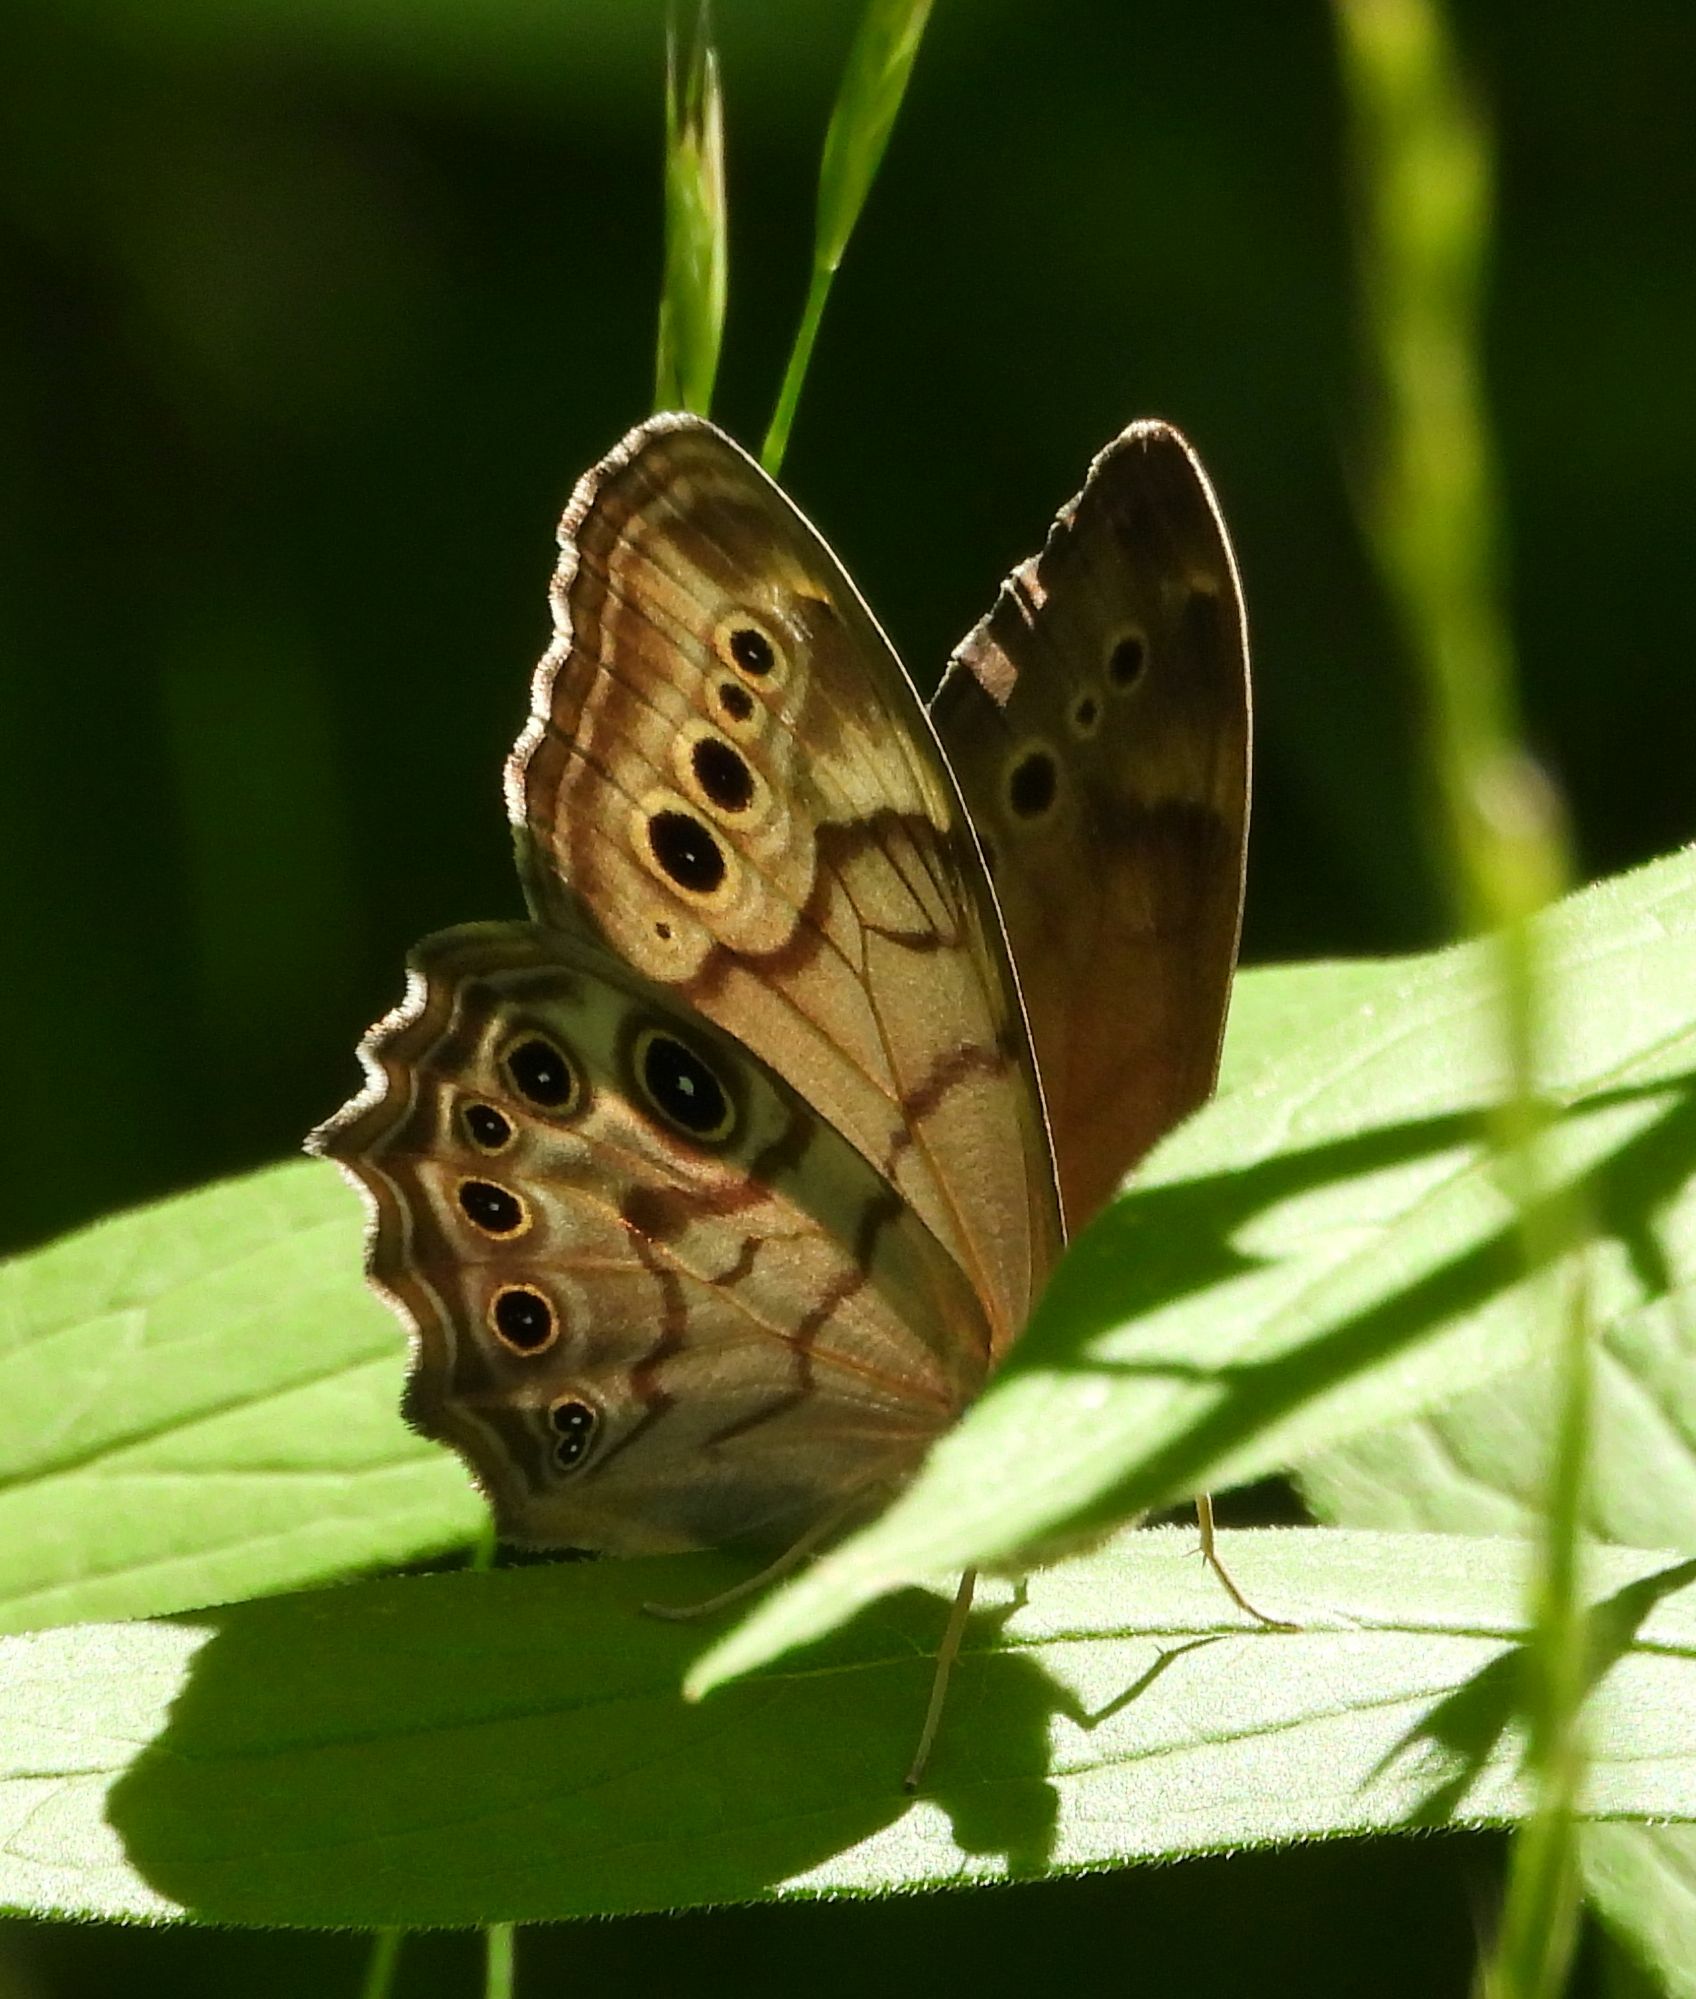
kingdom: Animalia
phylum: Arthropoda
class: Insecta
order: Lepidoptera
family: Nymphalidae
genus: Lethe
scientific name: Lethe anthedon
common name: Northern pearly-eye
